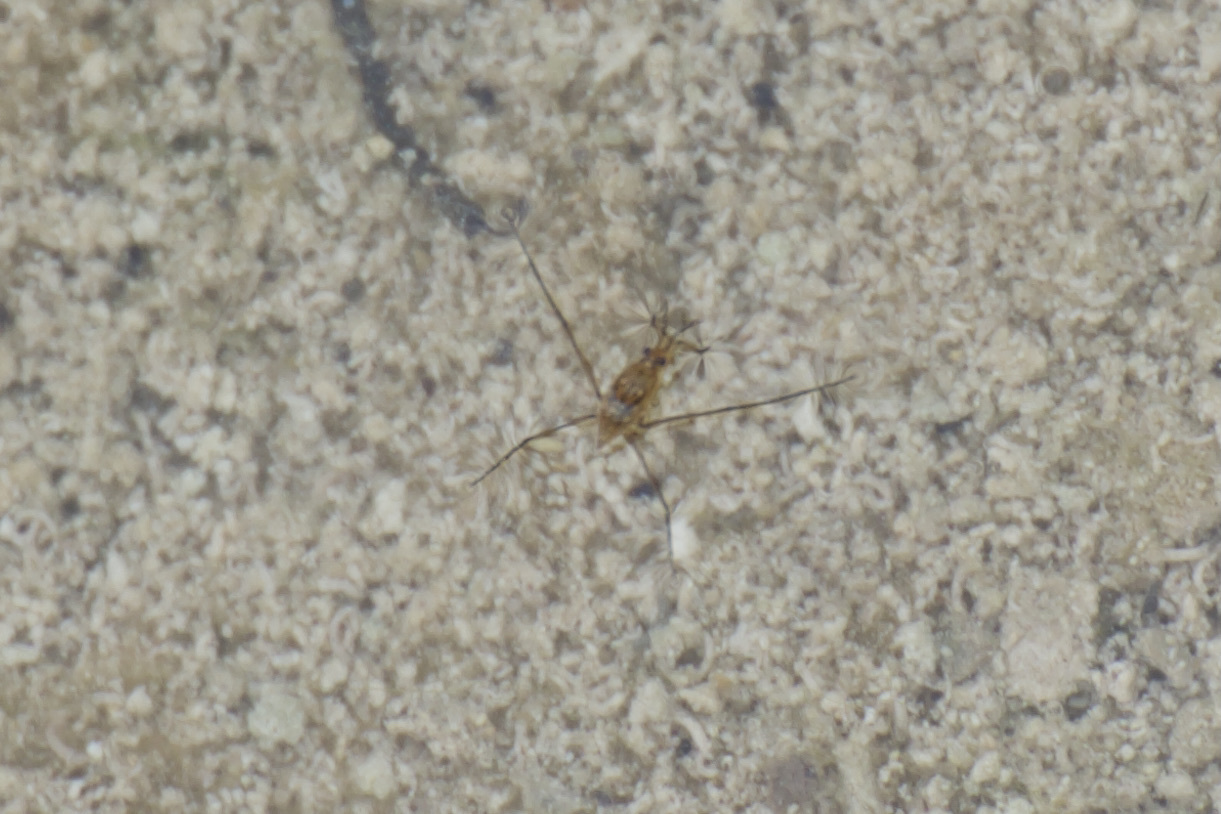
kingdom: Animalia
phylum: Arthropoda
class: Insecta
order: Hemiptera
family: Gerridae
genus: Aquarius
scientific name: Aquarius
